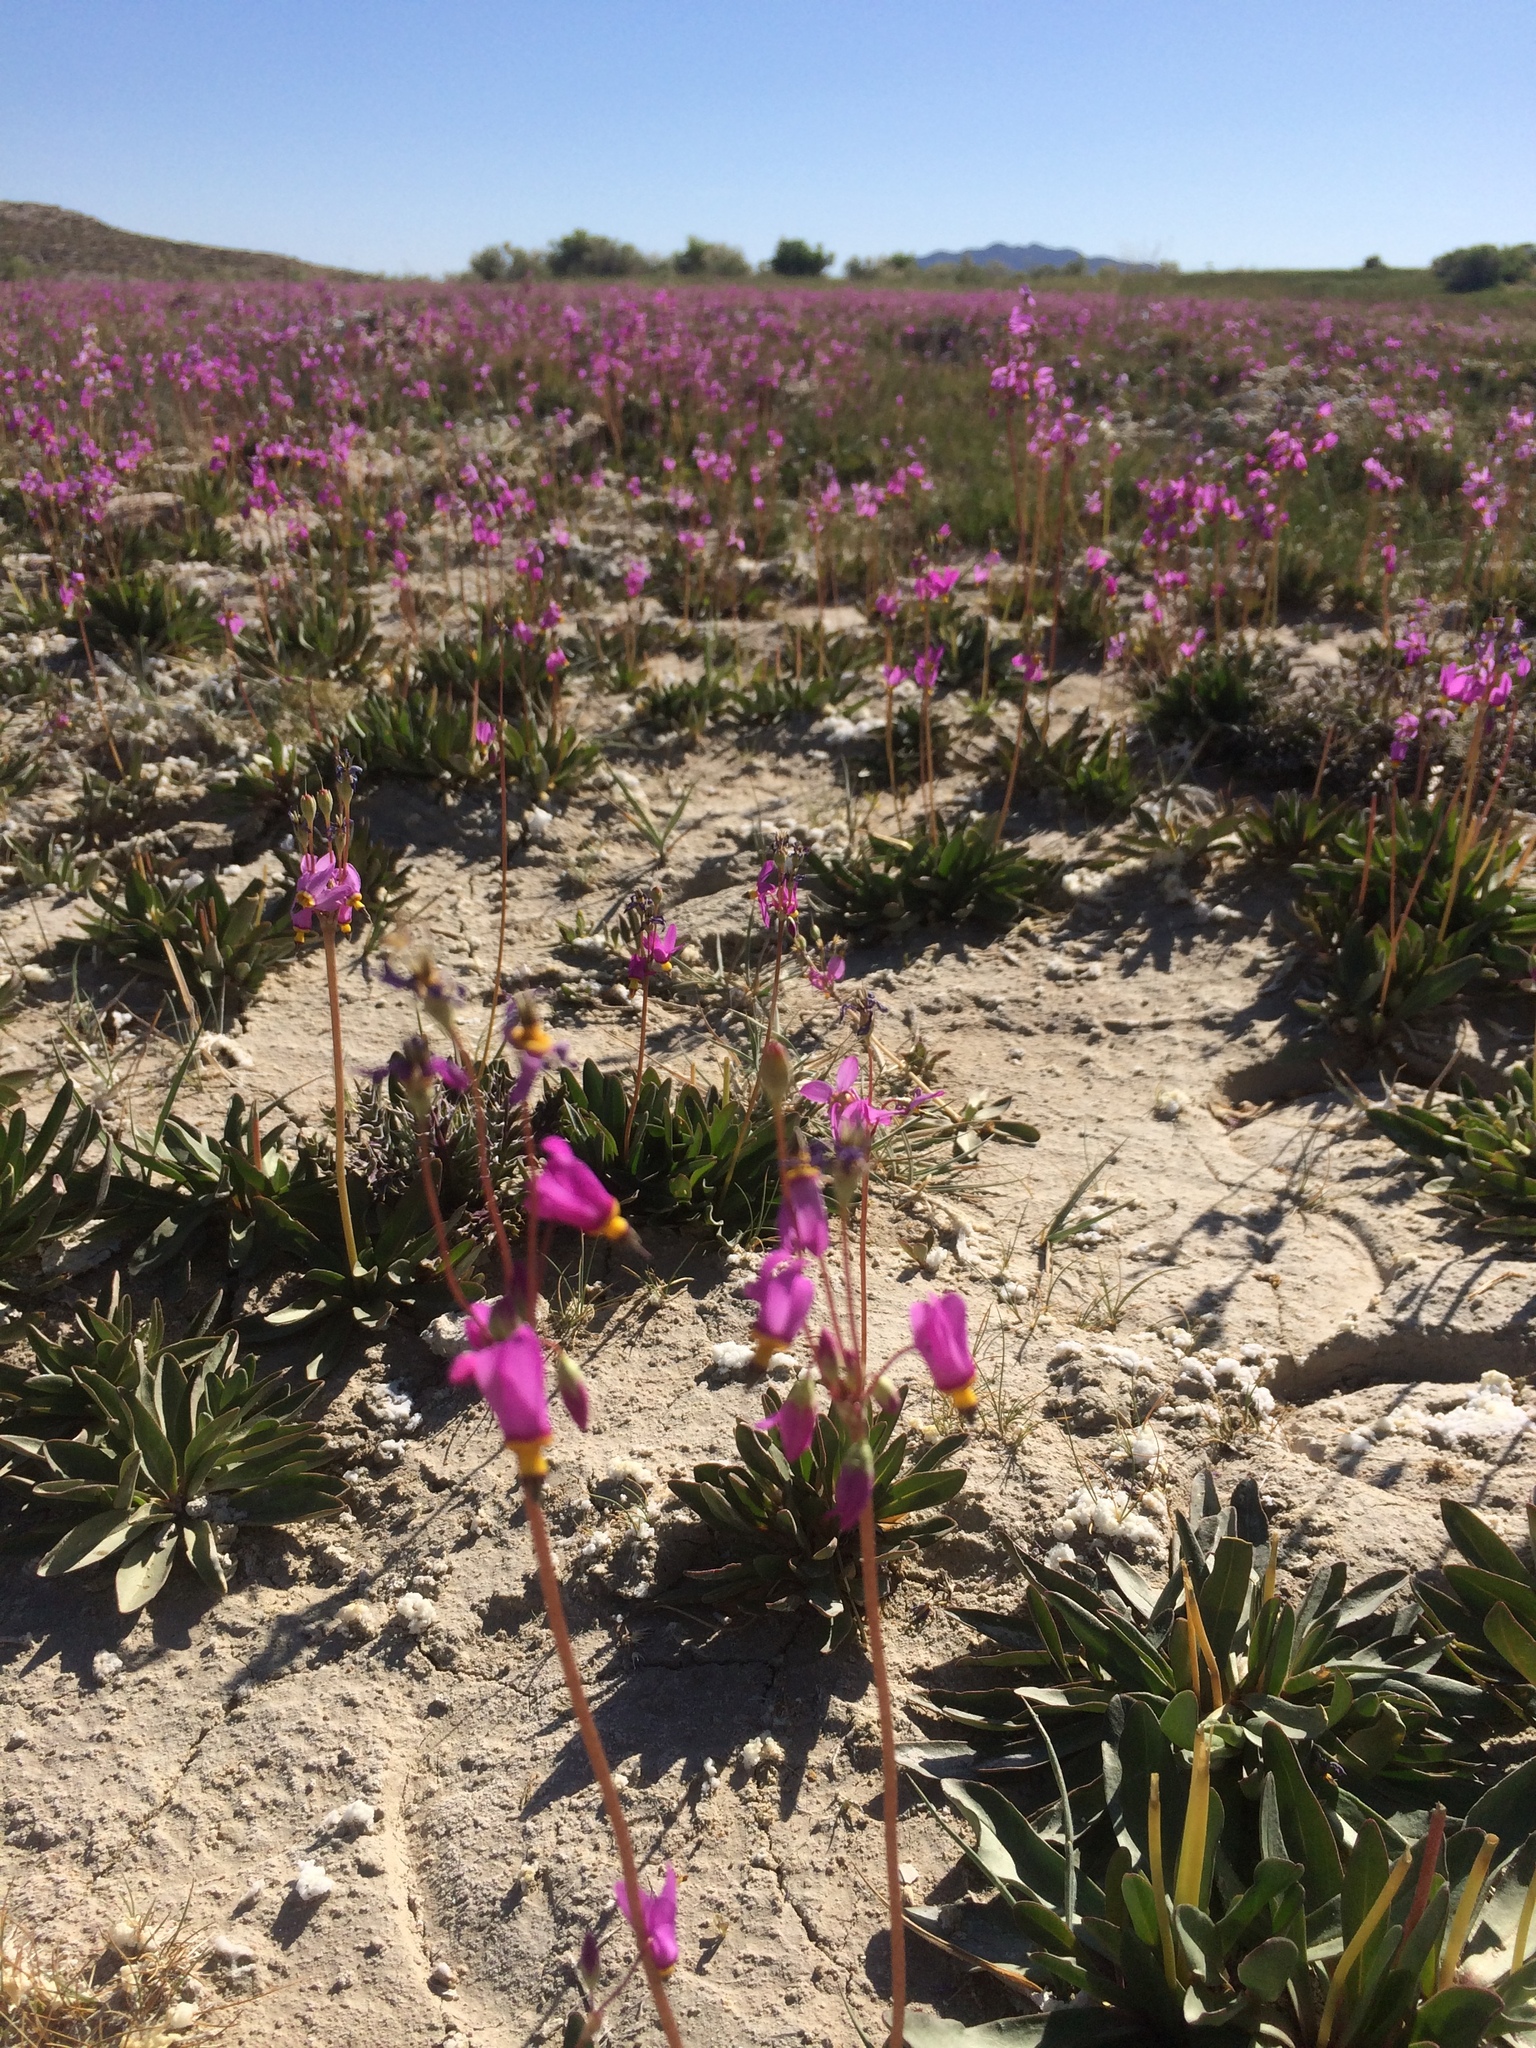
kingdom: Plantae
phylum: Tracheophyta
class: Magnoliopsida
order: Ericales
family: Primulaceae
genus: Dodecatheon
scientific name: Dodecatheon pulchellum
